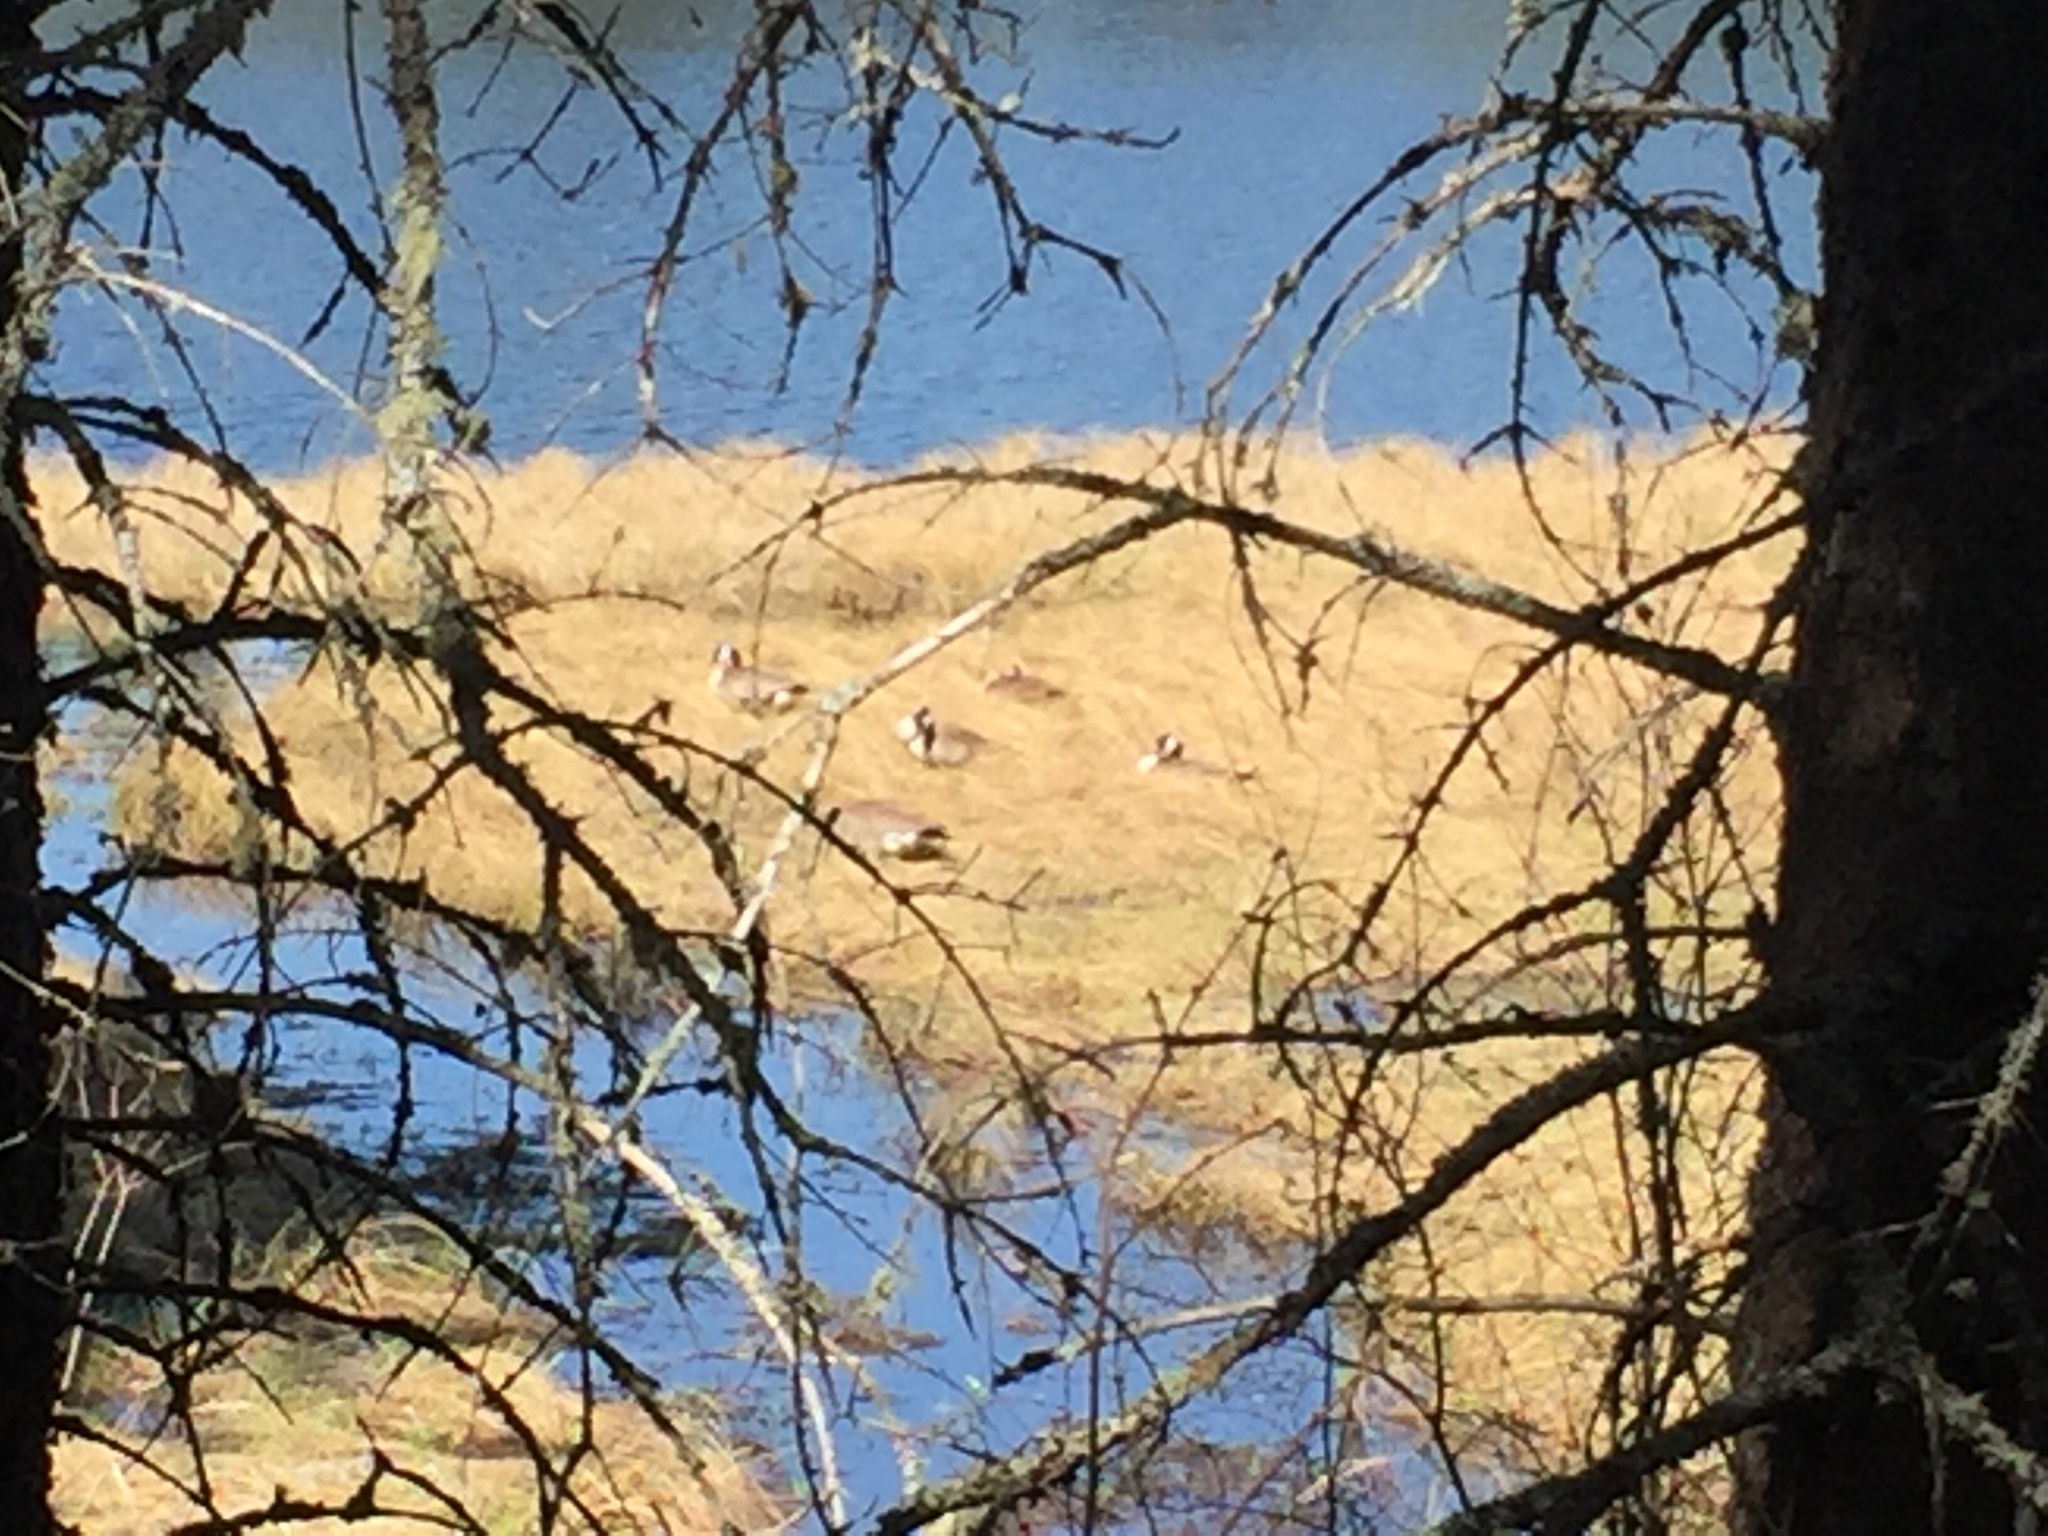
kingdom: Animalia
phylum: Chordata
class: Aves
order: Anseriformes
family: Anatidae
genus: Branta
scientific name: Branta canadensis
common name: Canada goose
